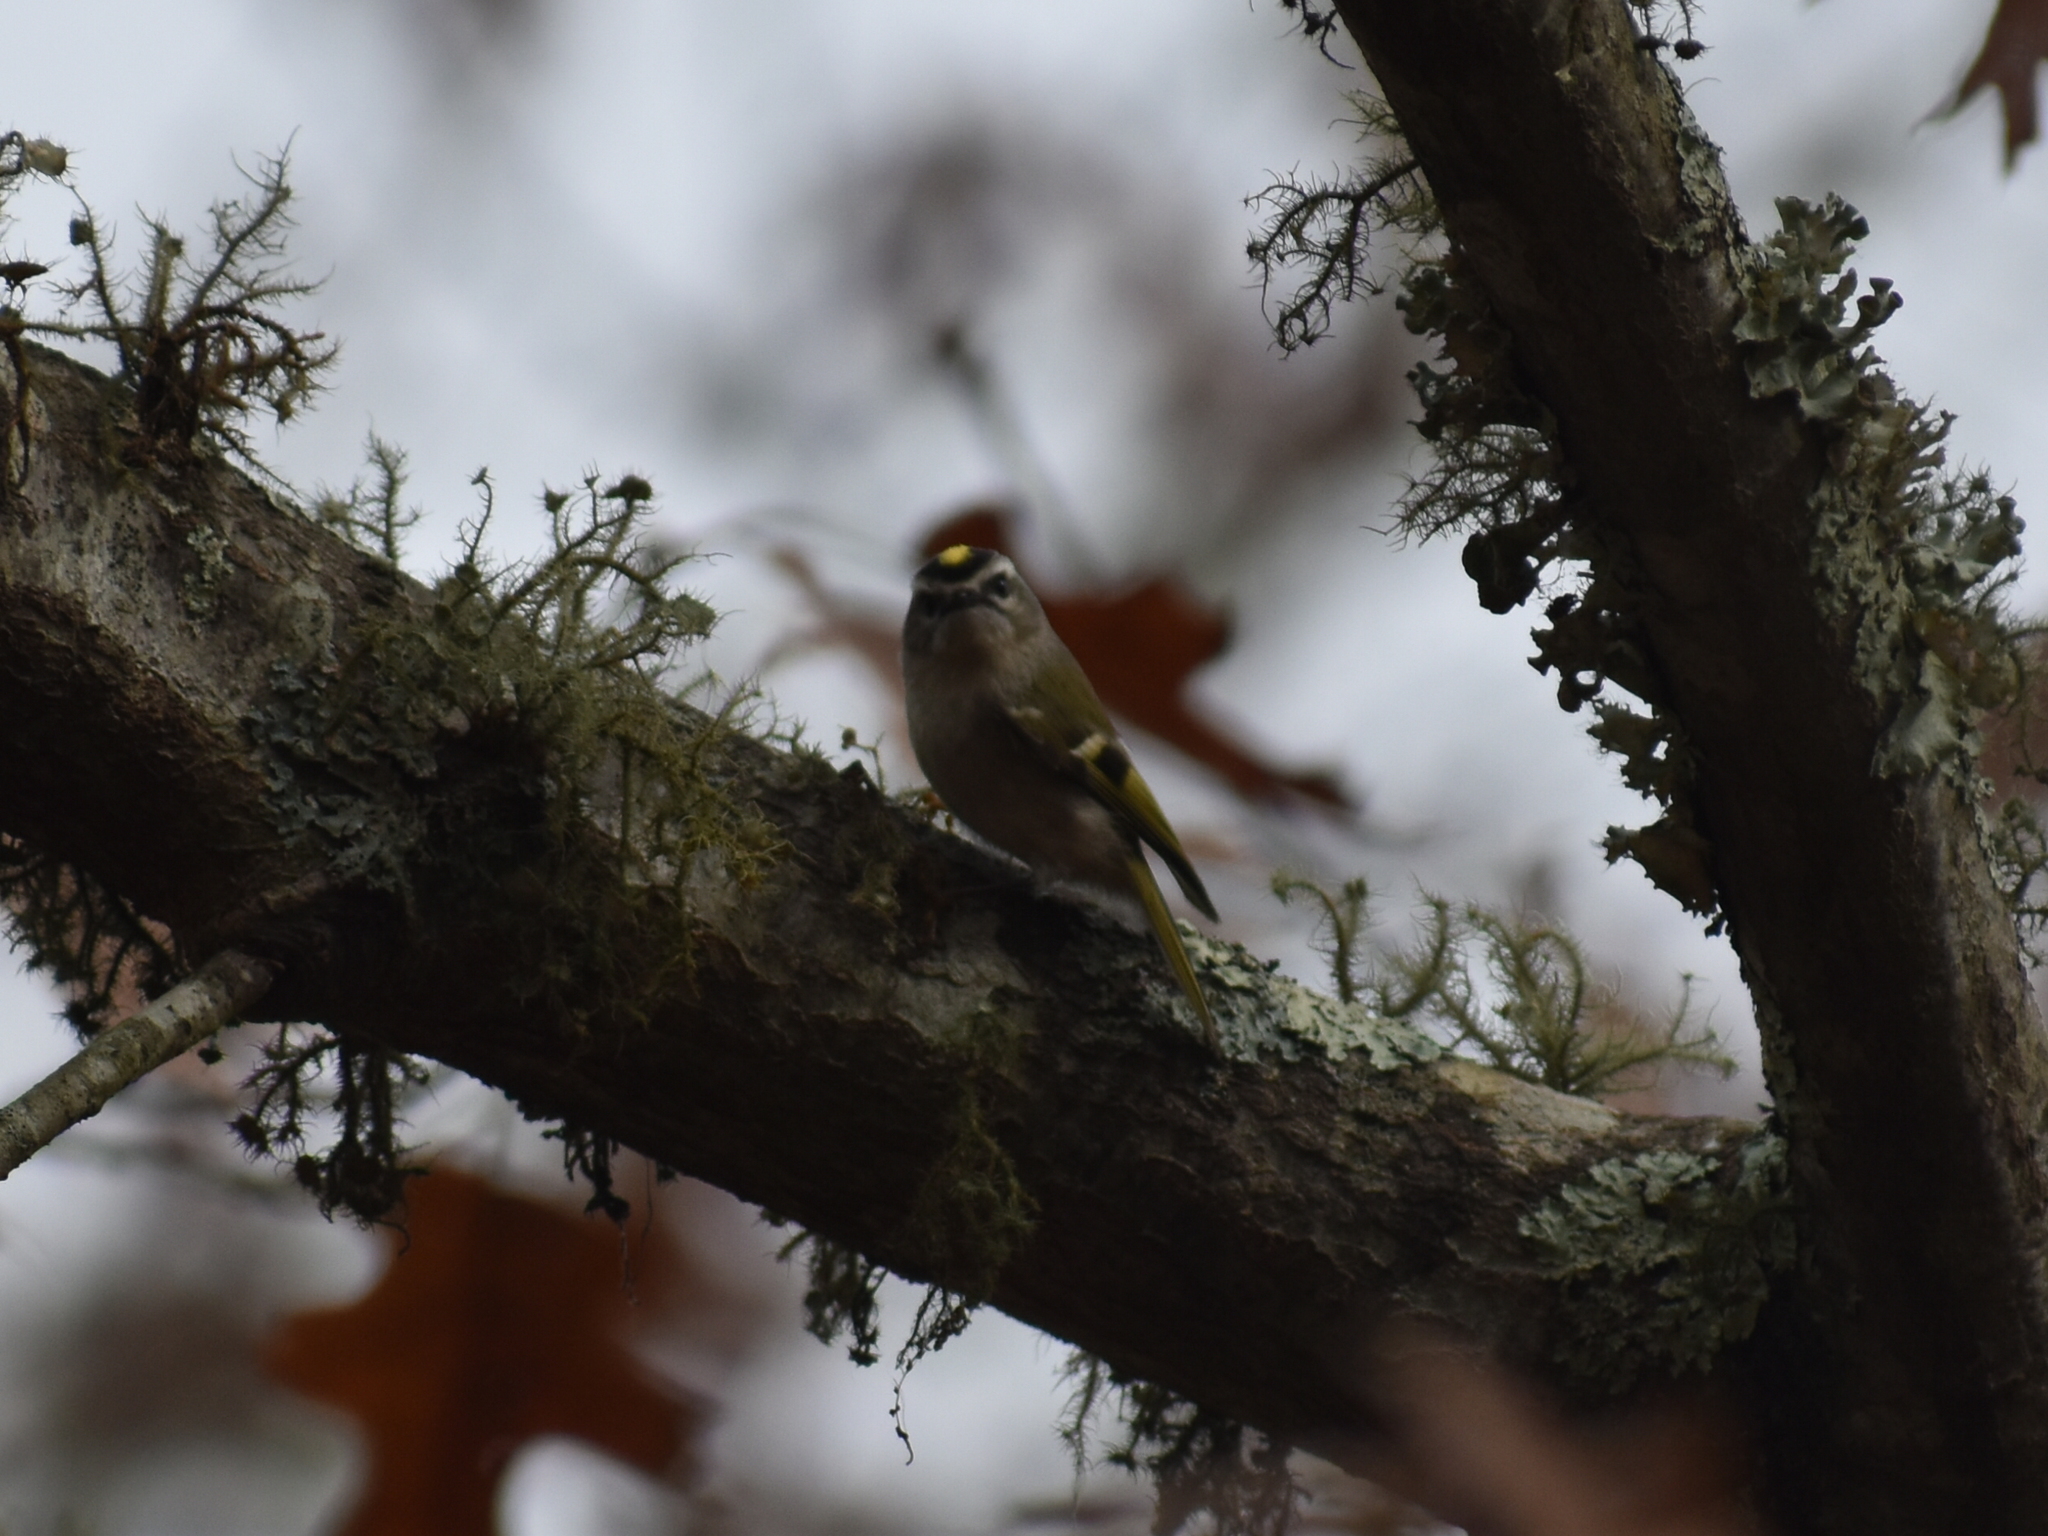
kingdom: Animalia
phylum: Chordata
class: Aves
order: Passeriformes
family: Regulidae
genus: Regulus
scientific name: Regulus satrapa
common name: Golden-crowned kinglet
